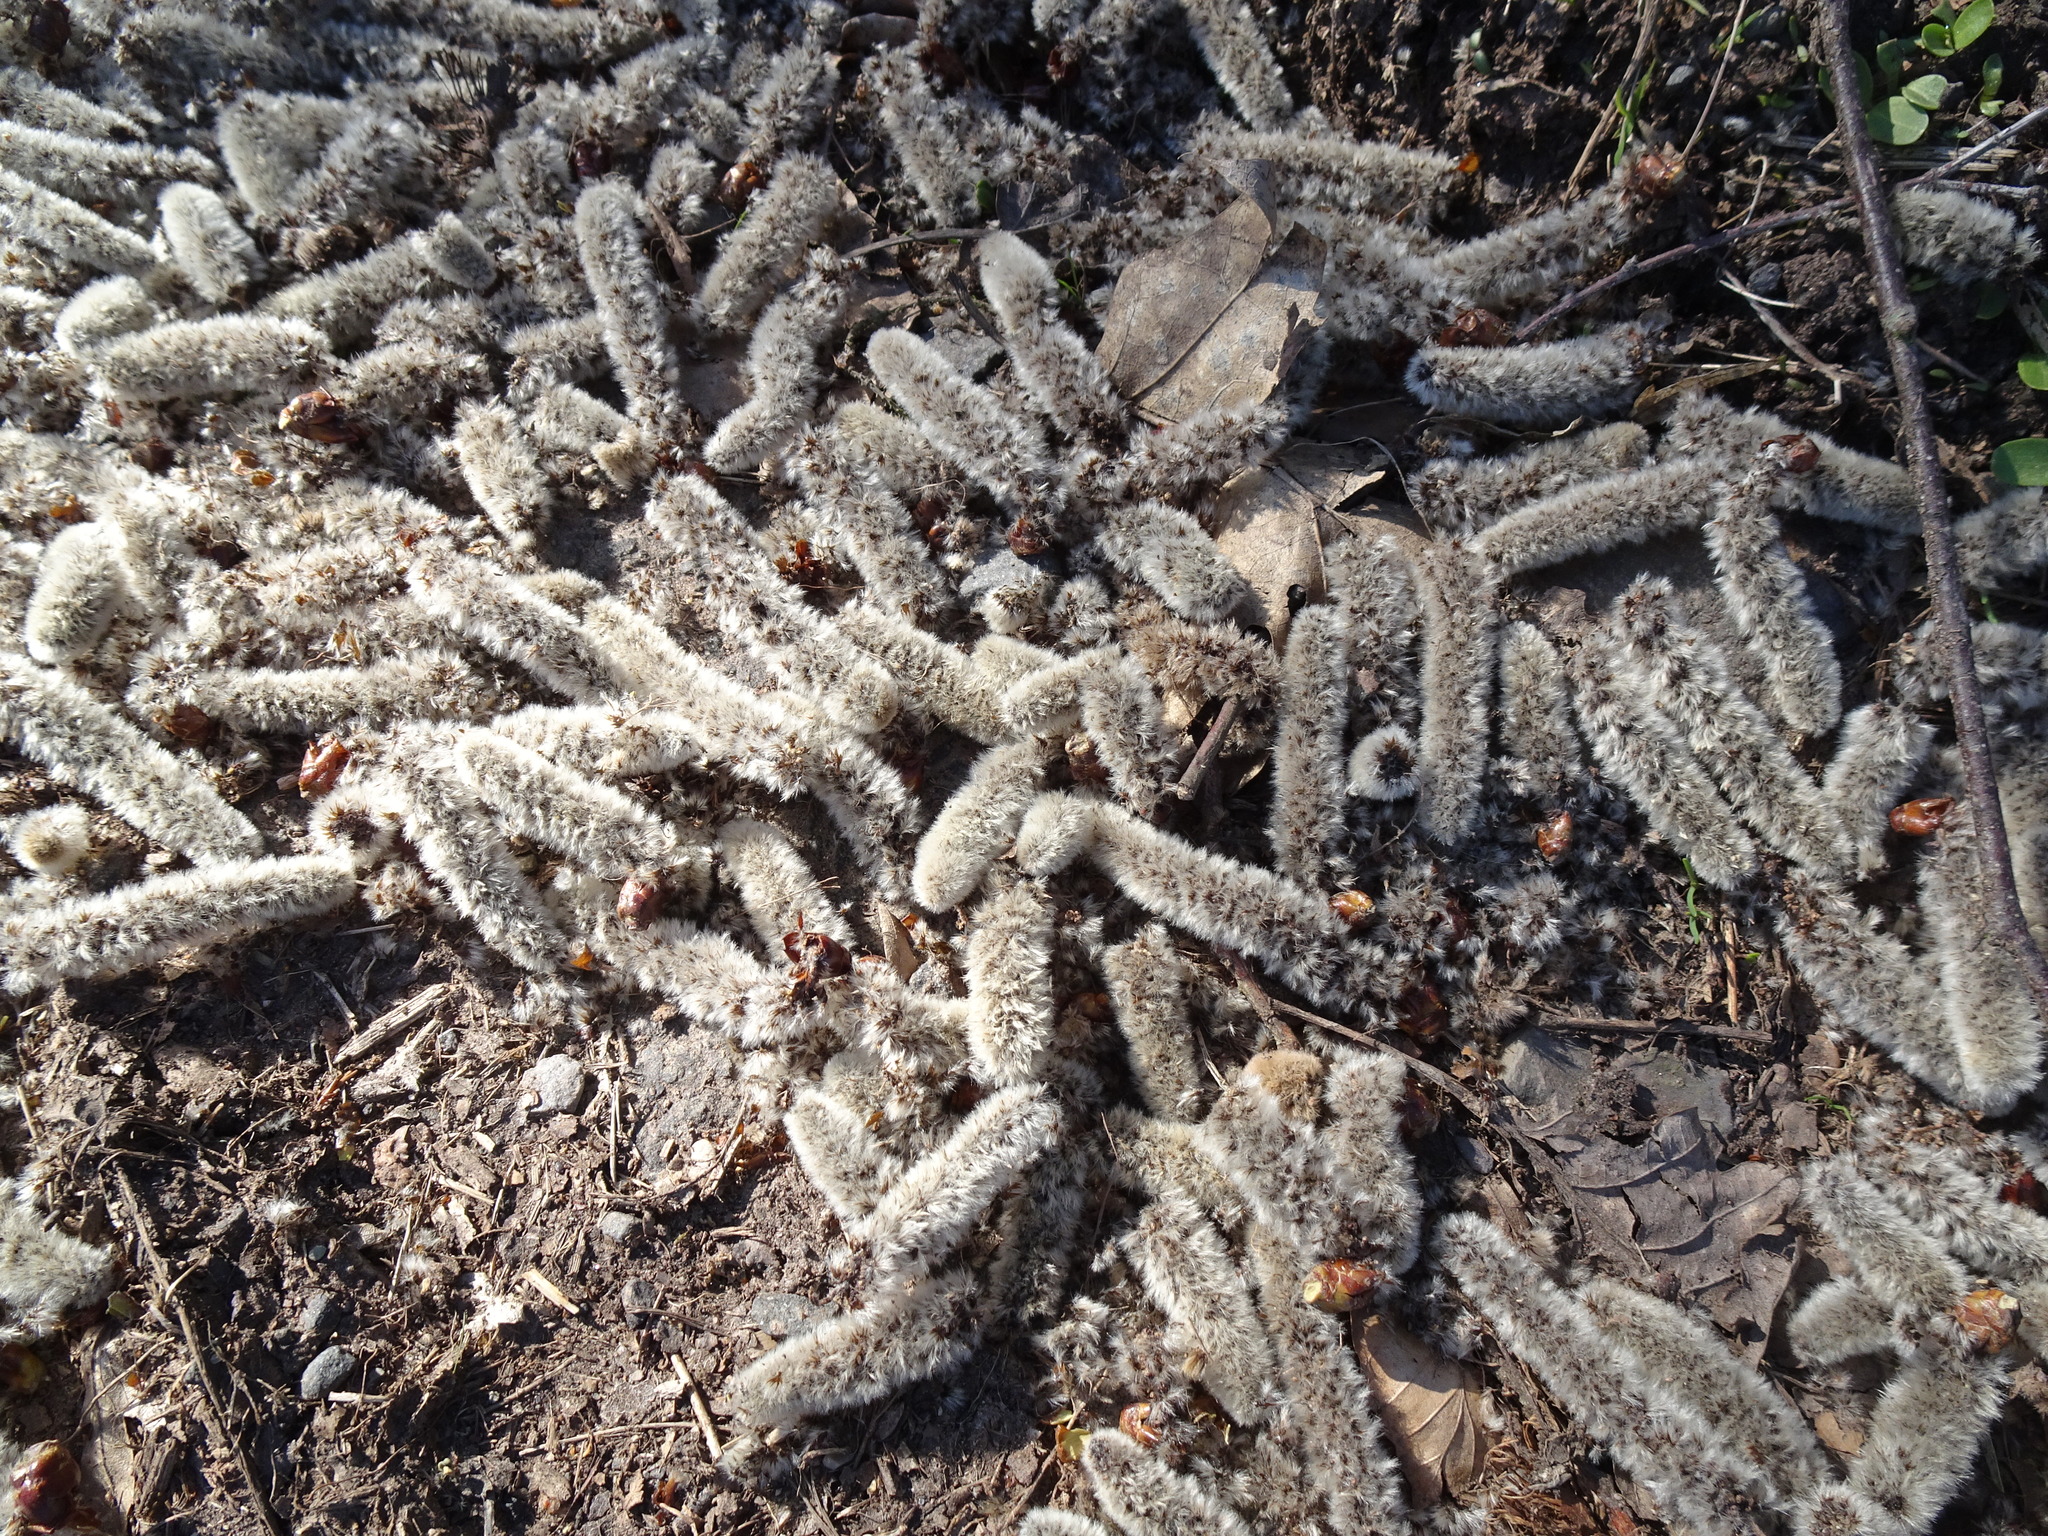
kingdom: Plantae
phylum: Tracheophyta
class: Magnoliopsida
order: Malpighiales
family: Salicaceae
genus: Populus
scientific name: Populus tremula
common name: European aspen
